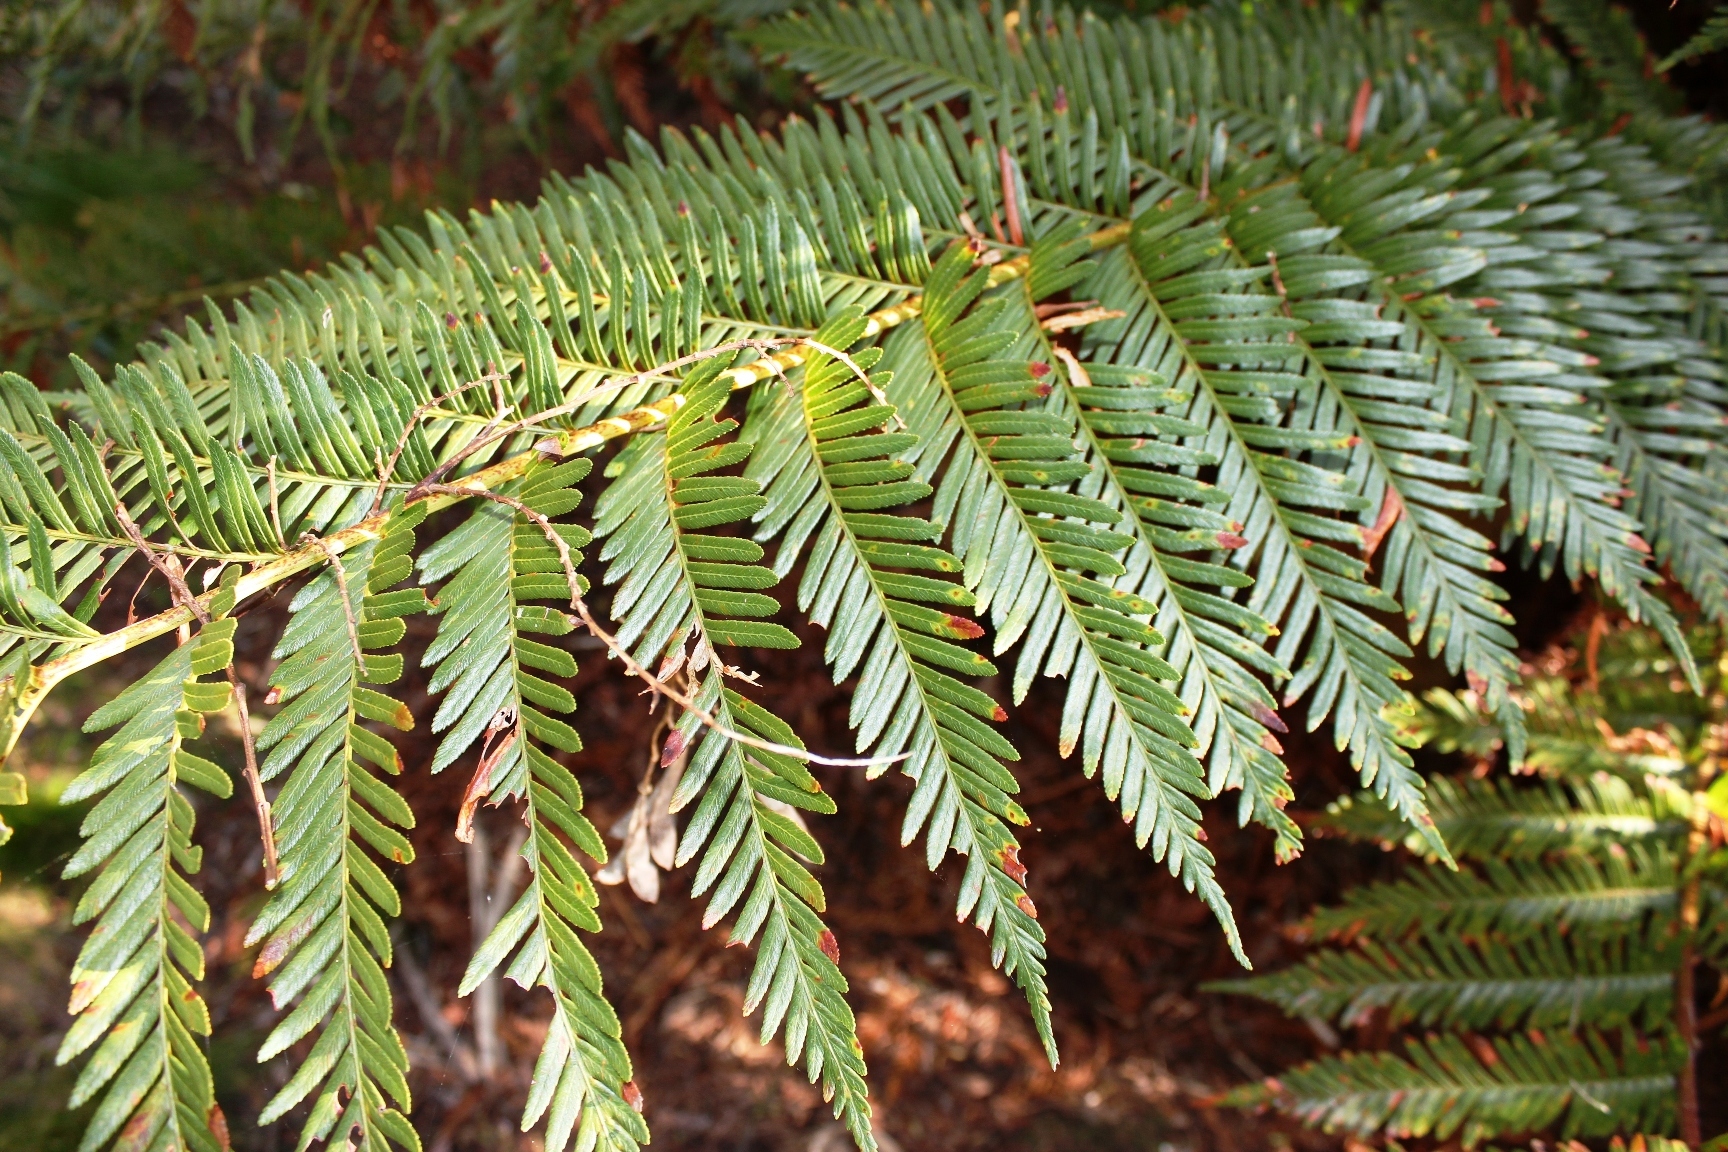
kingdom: Plantae
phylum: Tracheophyta
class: Polypodiopsida
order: Osmundales
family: Osmundaceae
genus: Todea
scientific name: Todea barbara
